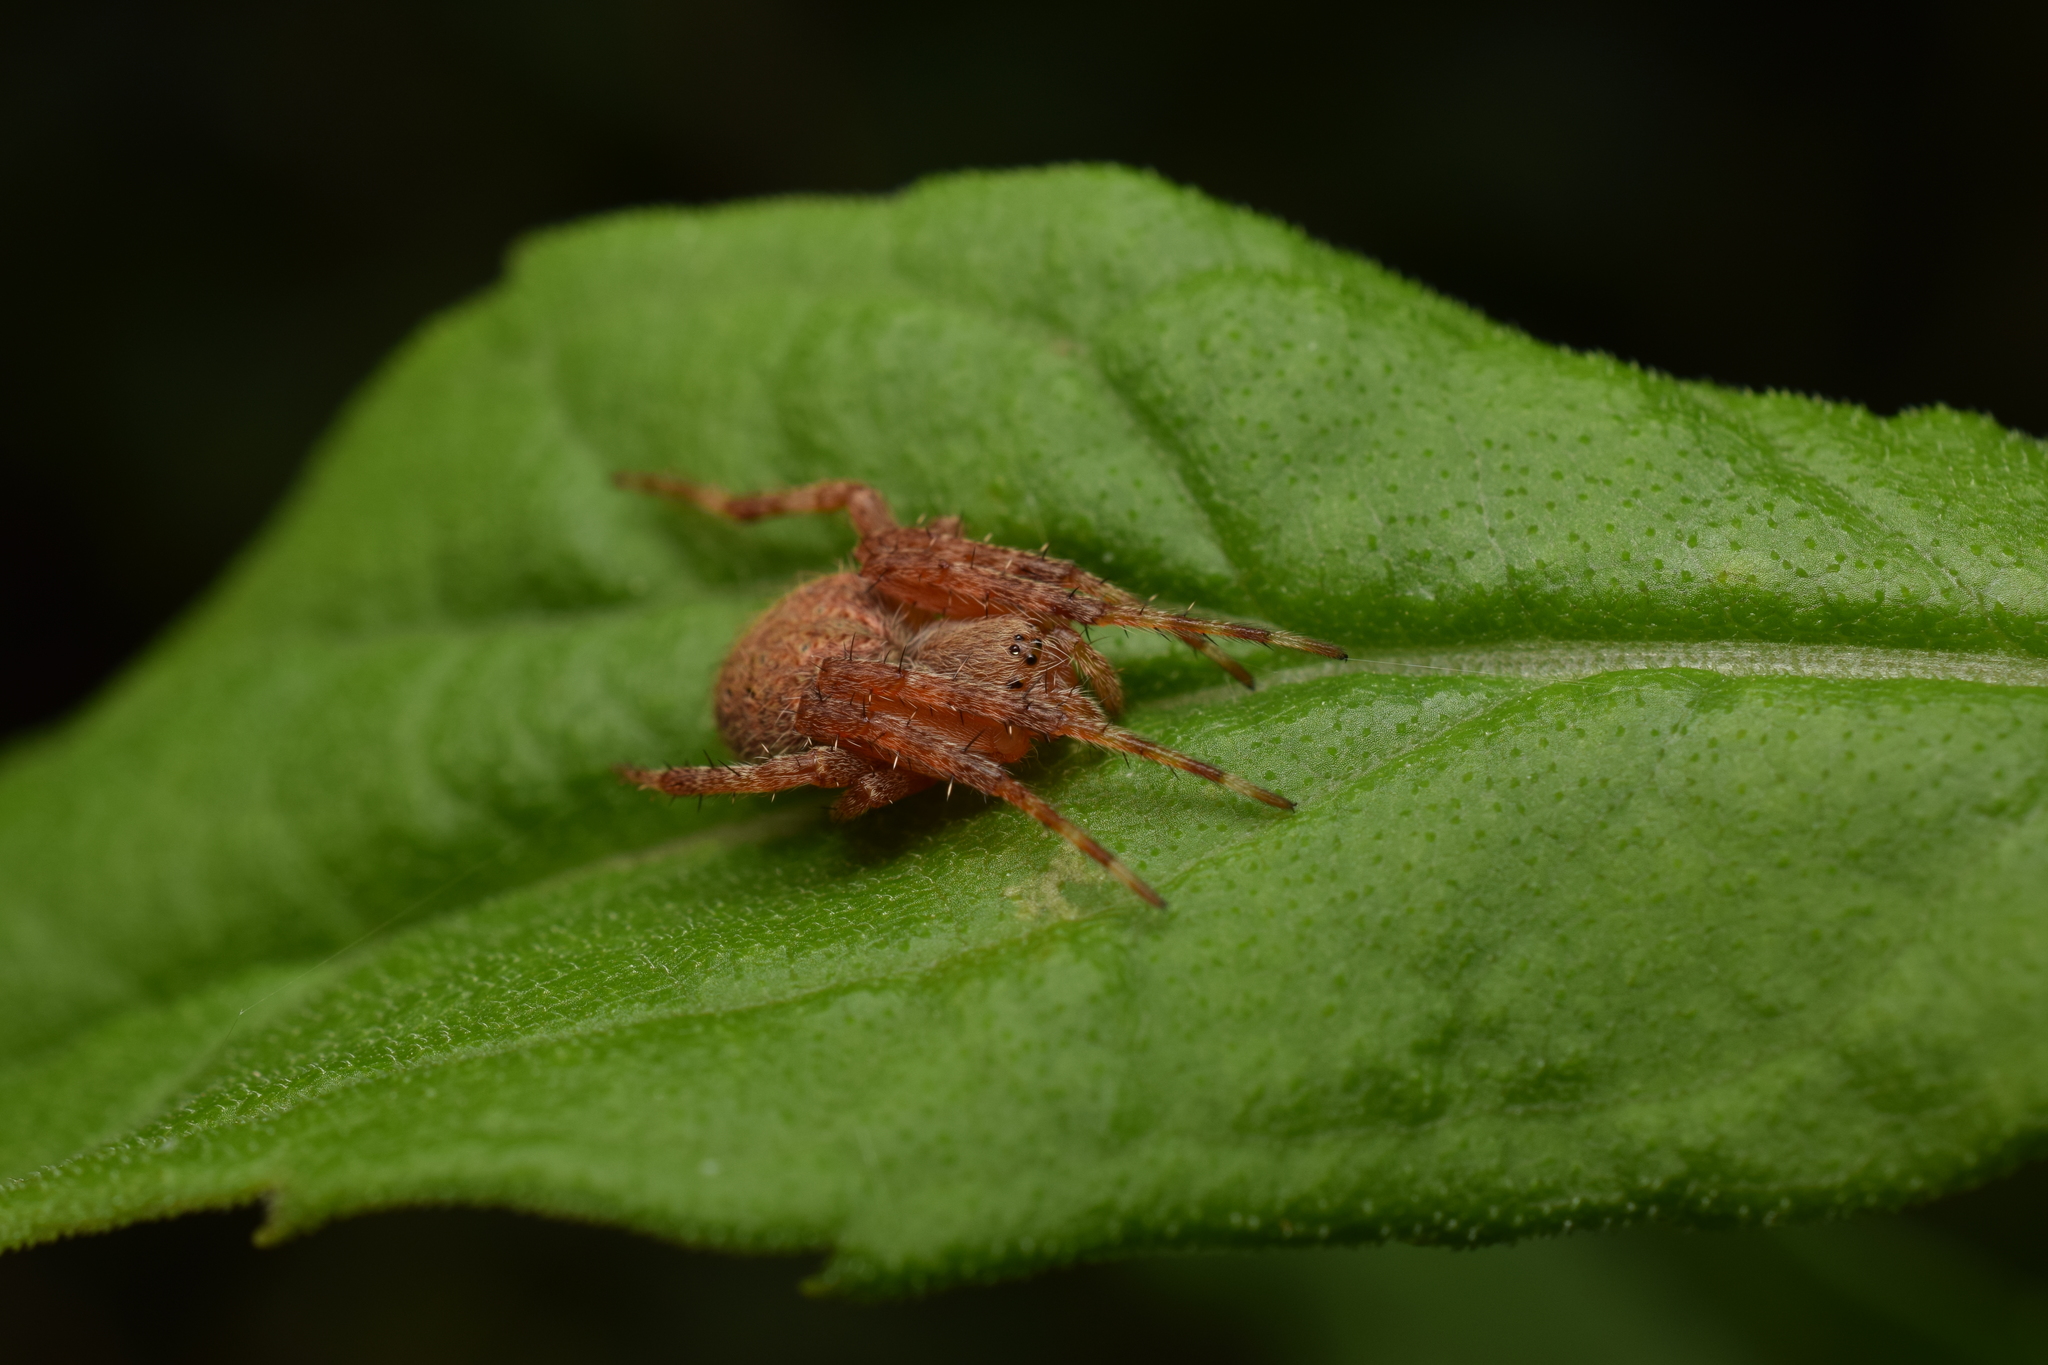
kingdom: Animalia
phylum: Arthropoda
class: Arachnida
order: Araneae
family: Araneidae
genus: Neoscona
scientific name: Neoscona punctigera
